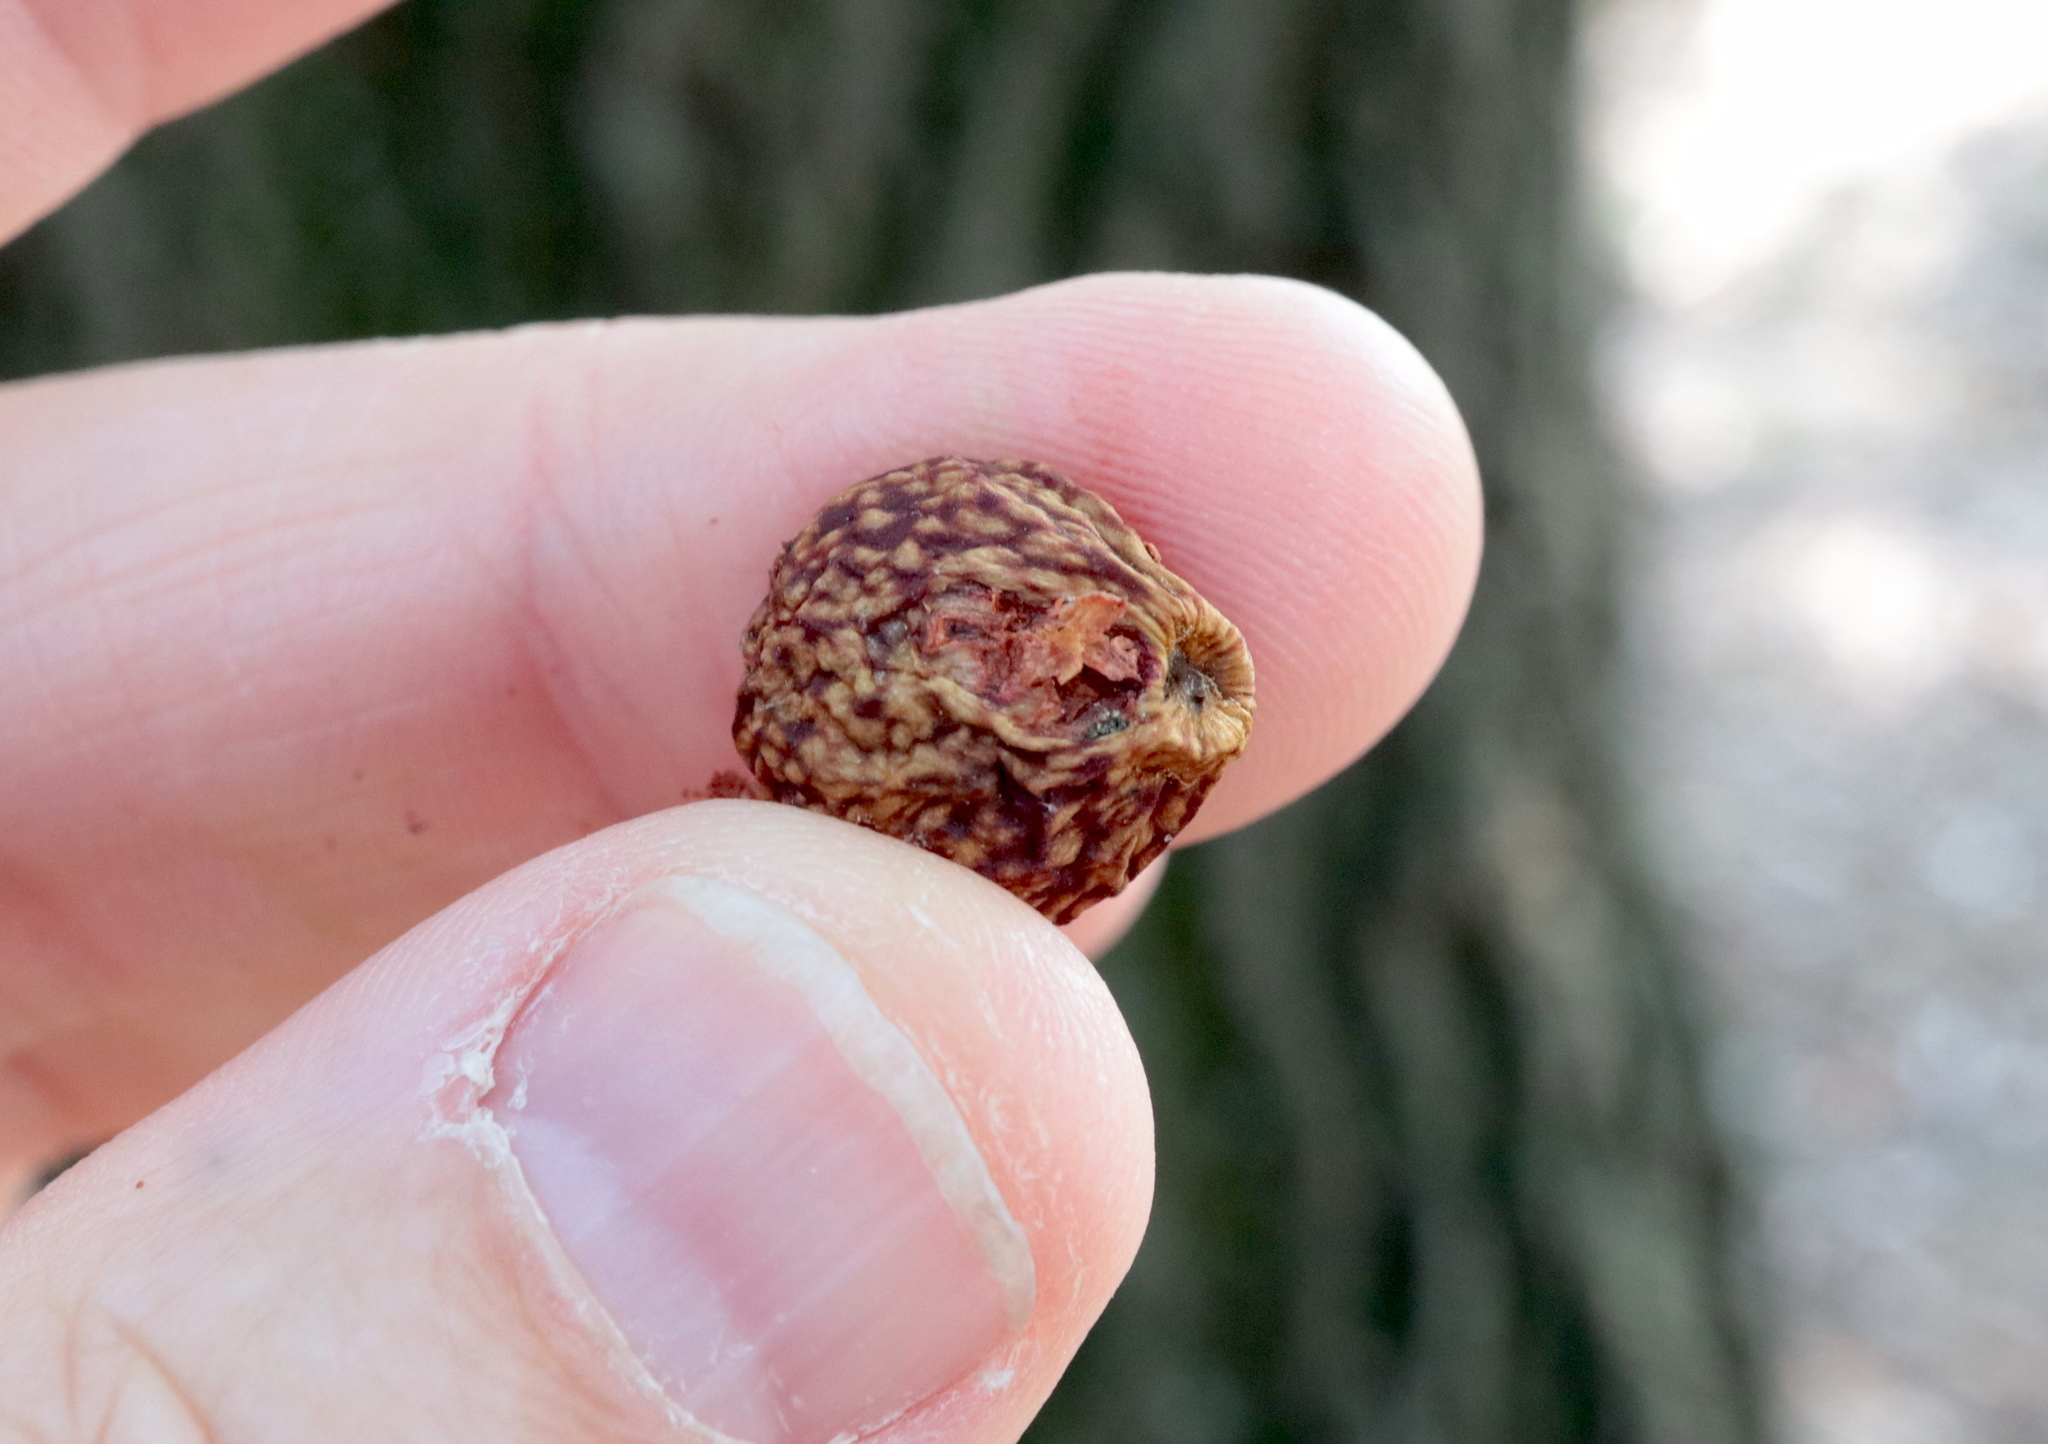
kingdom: Animalia
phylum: Arthropoda
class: Insecta
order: Hymenoptera
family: Cynipidae
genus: Amphibolips
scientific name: Amphibolips
